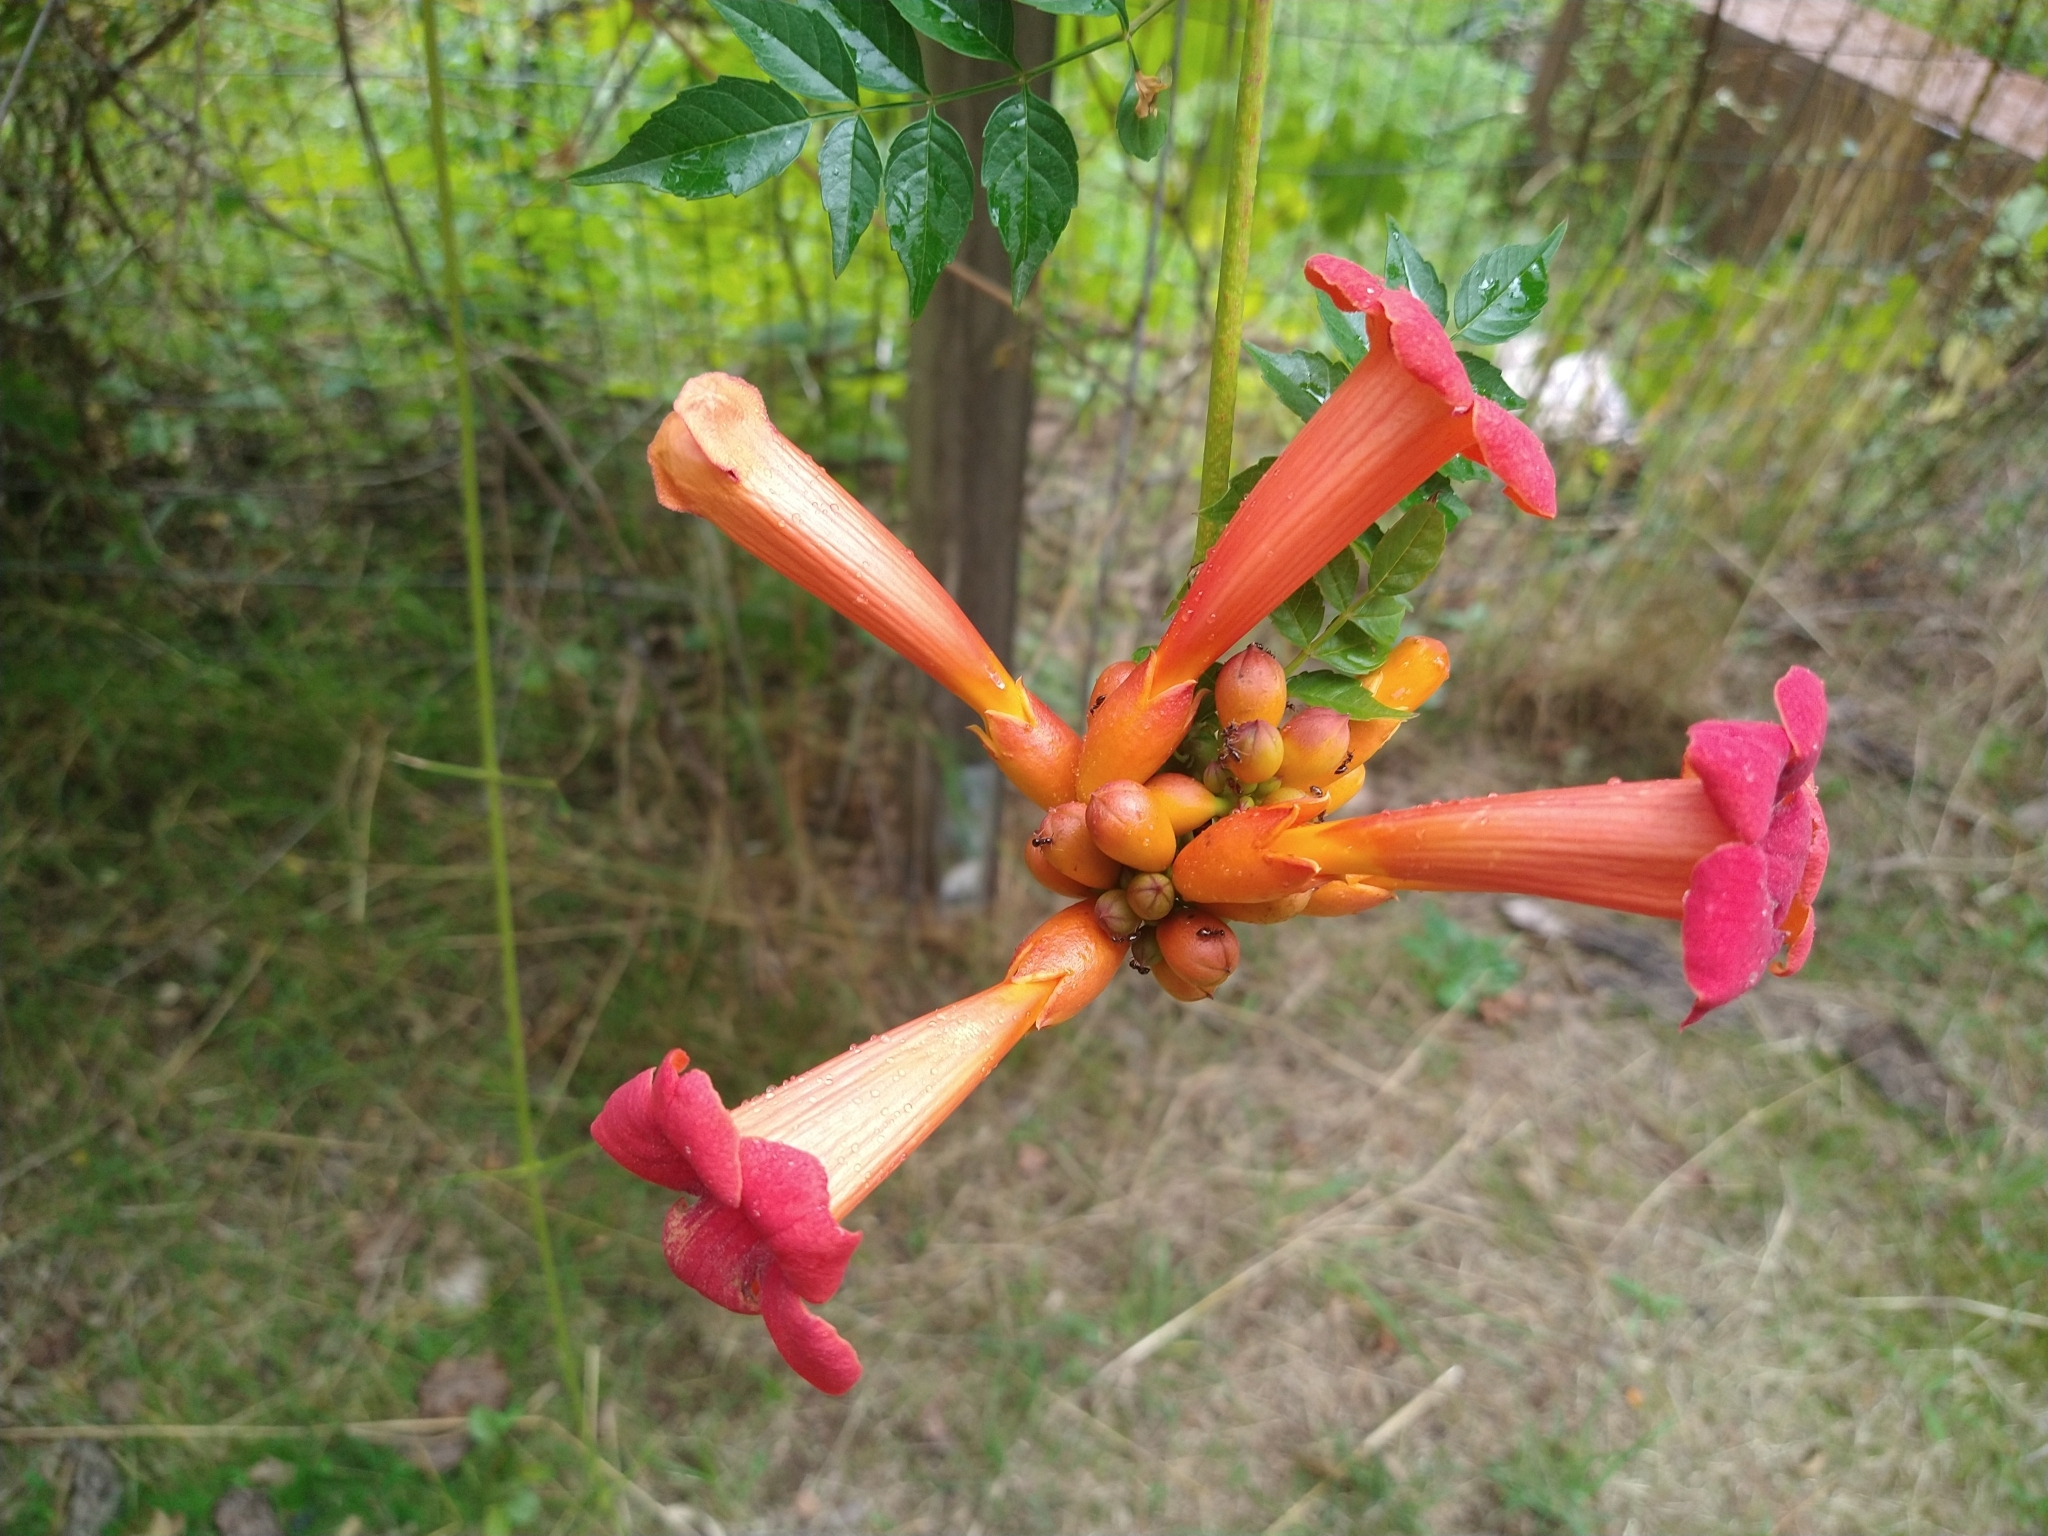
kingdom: Plantae
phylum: Tracheophyta
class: Magnoliopsida
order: Lamiales
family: Bignoniaceae
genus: Campsis
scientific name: Campsis radicans
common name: Trumpet-creeper
